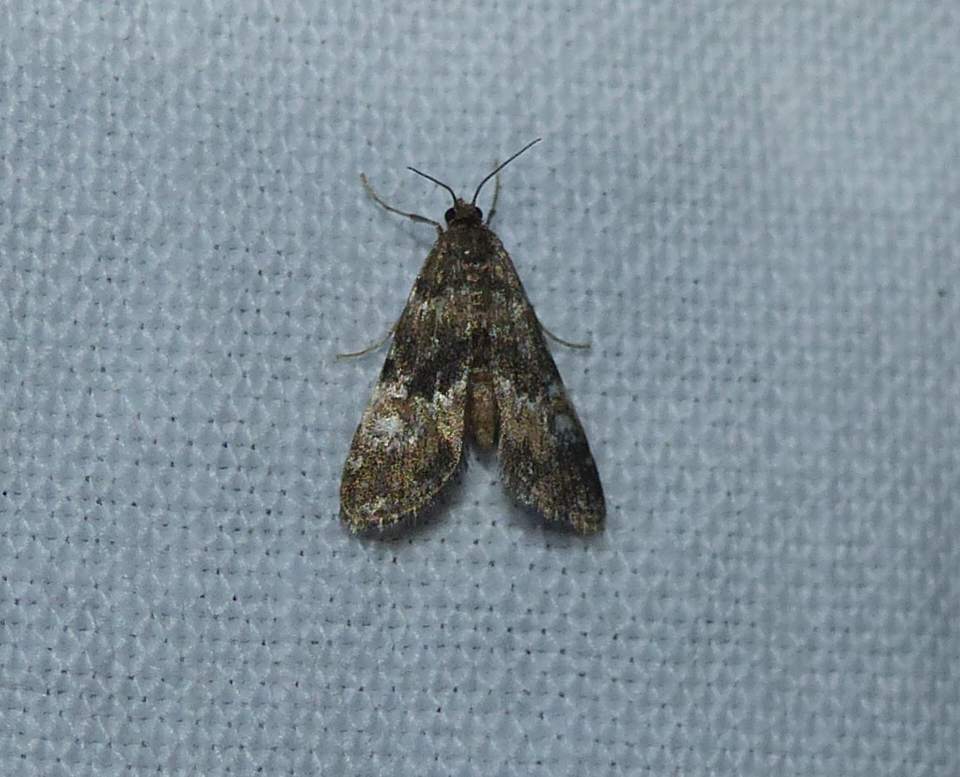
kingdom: Animalia
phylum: Arthropoda
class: Insecta
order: Lepidoptera
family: Crambidae
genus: Elophila
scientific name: Elophila obliteralis
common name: Waterlily leafcutter moth
